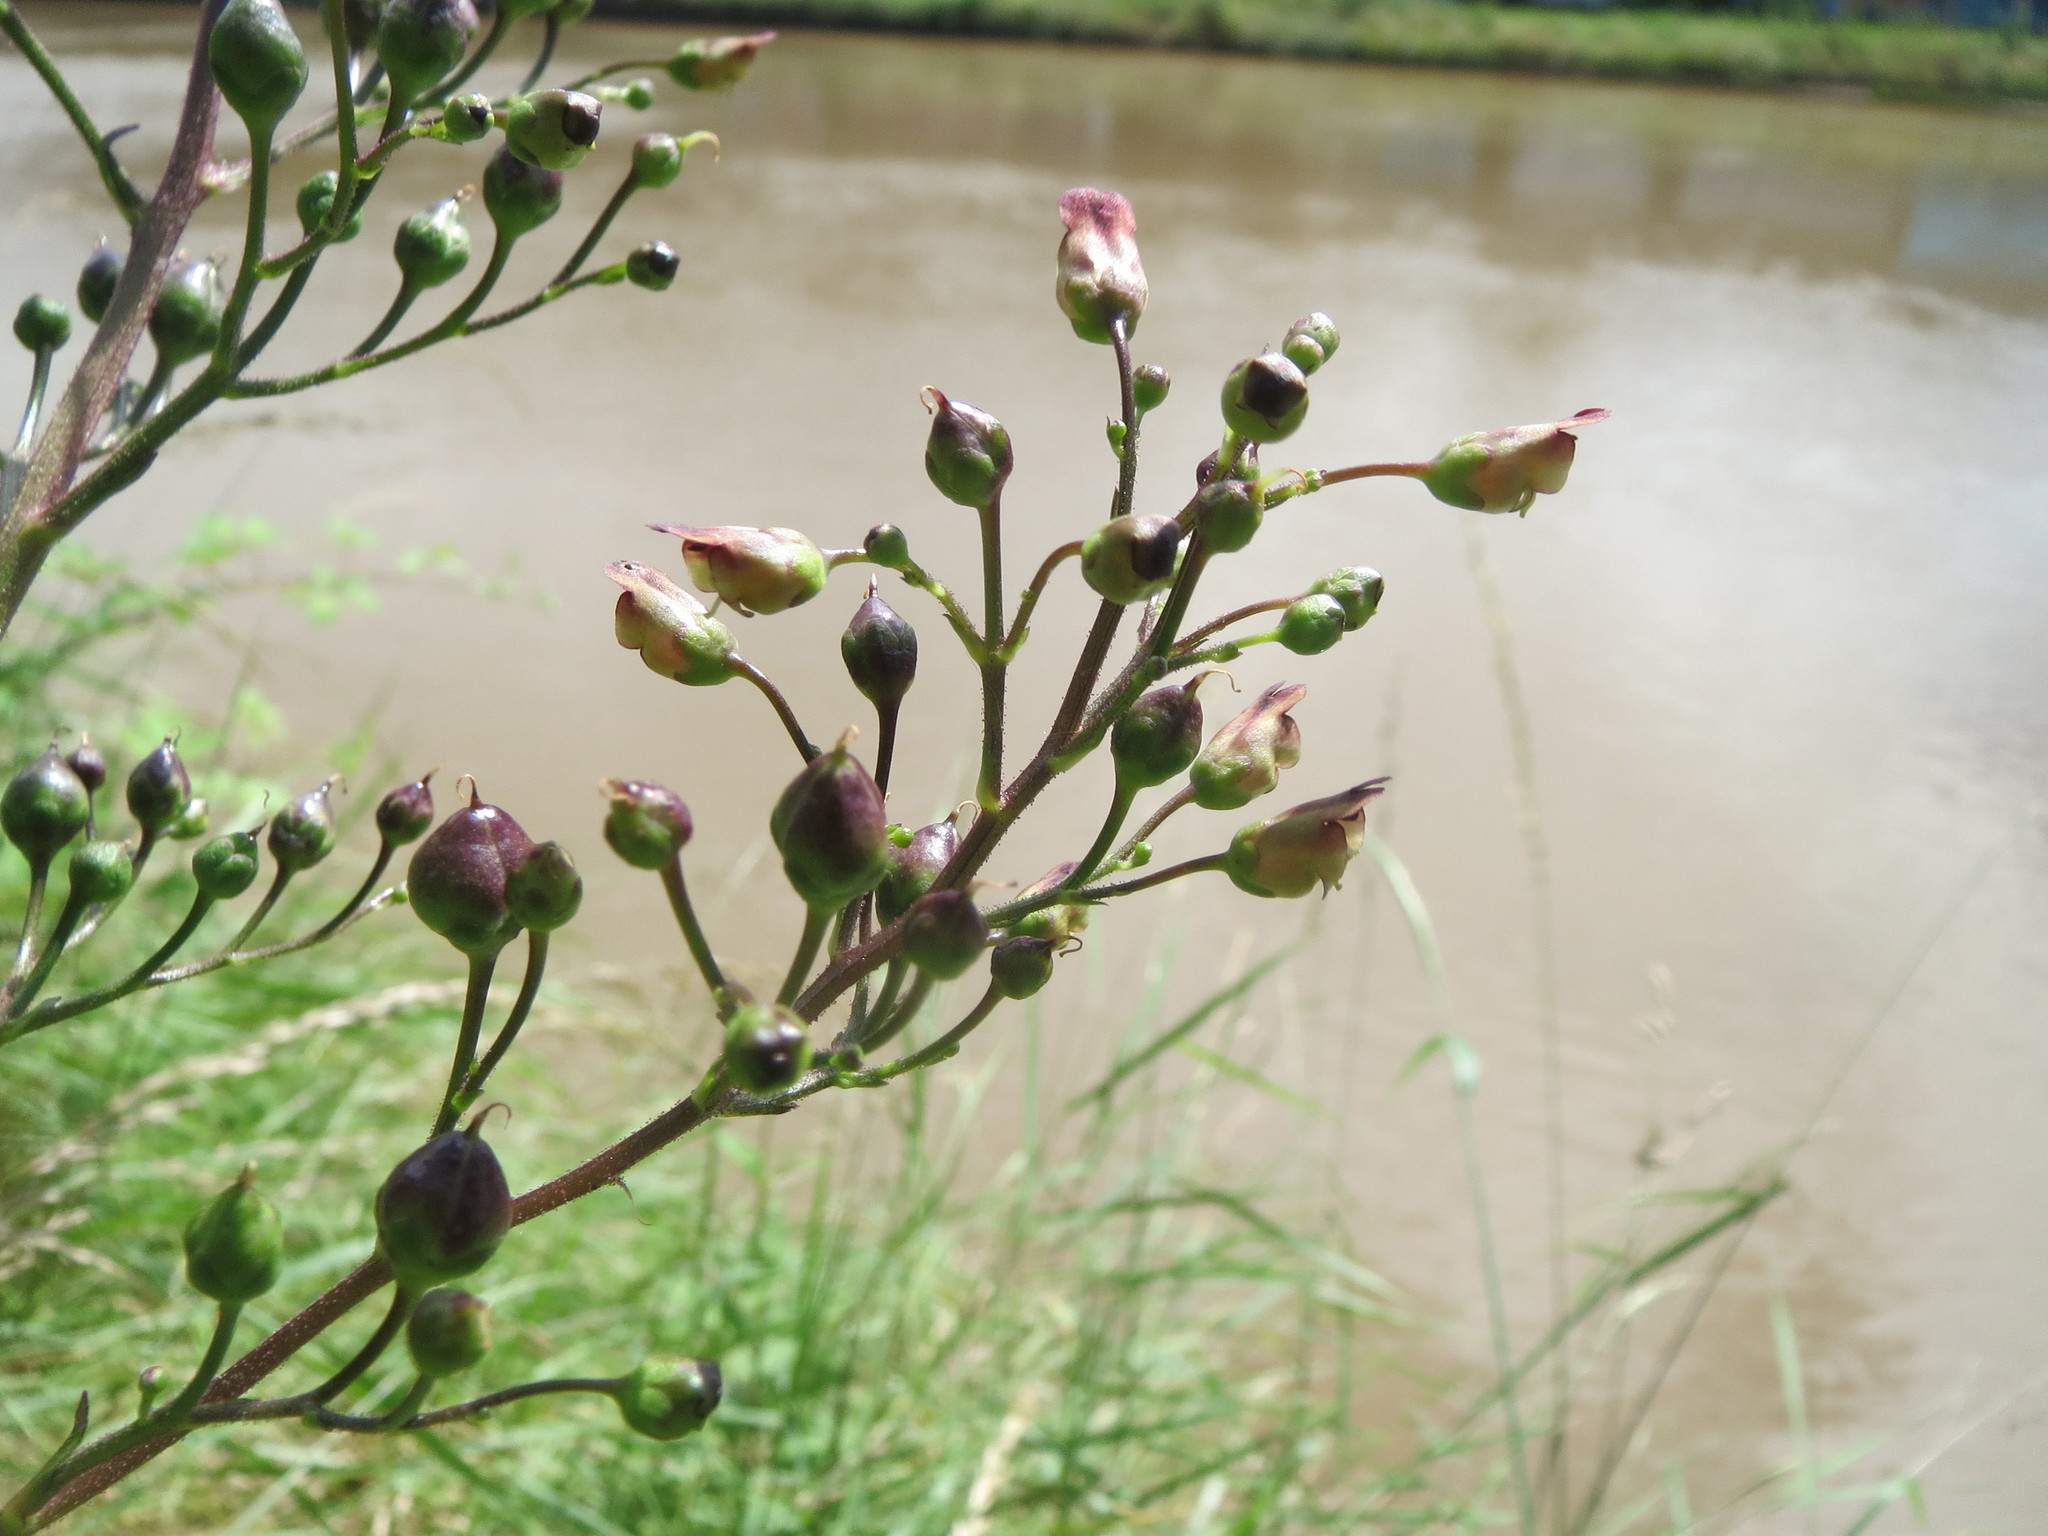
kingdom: Plantae
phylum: Tracheophyta
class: Magnoliopsida
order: Lamiales
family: Scrophulariaceae
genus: Scrophularia
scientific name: Scrophularia nodosa
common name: Common figwort
